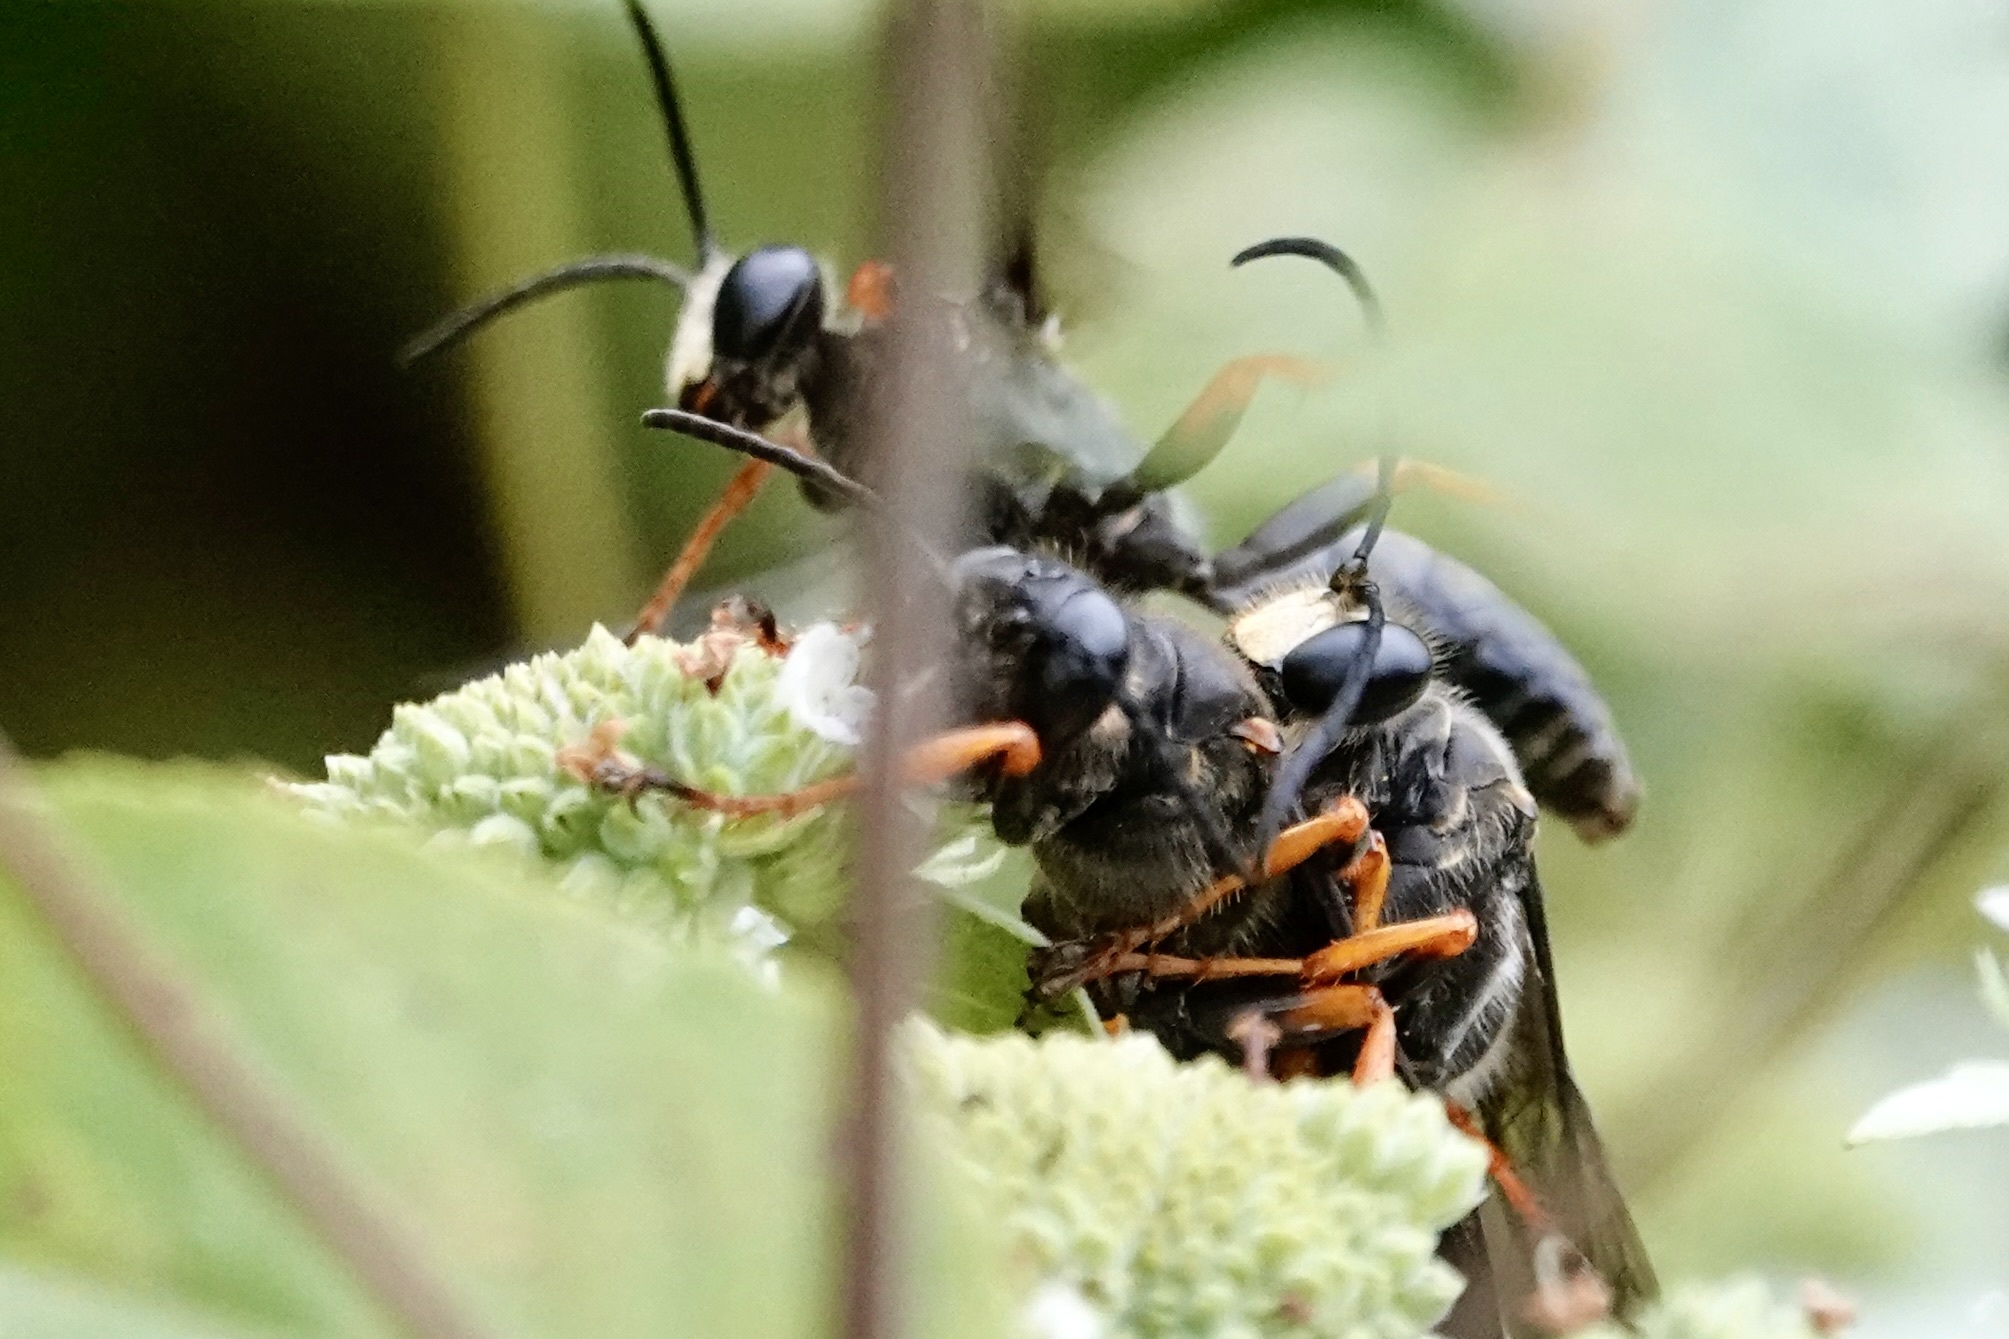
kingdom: Animalia
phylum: Arthropoda
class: Insecta
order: Hymenoptera
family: Sphecidae
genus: Sphex
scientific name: Sphex nudus
